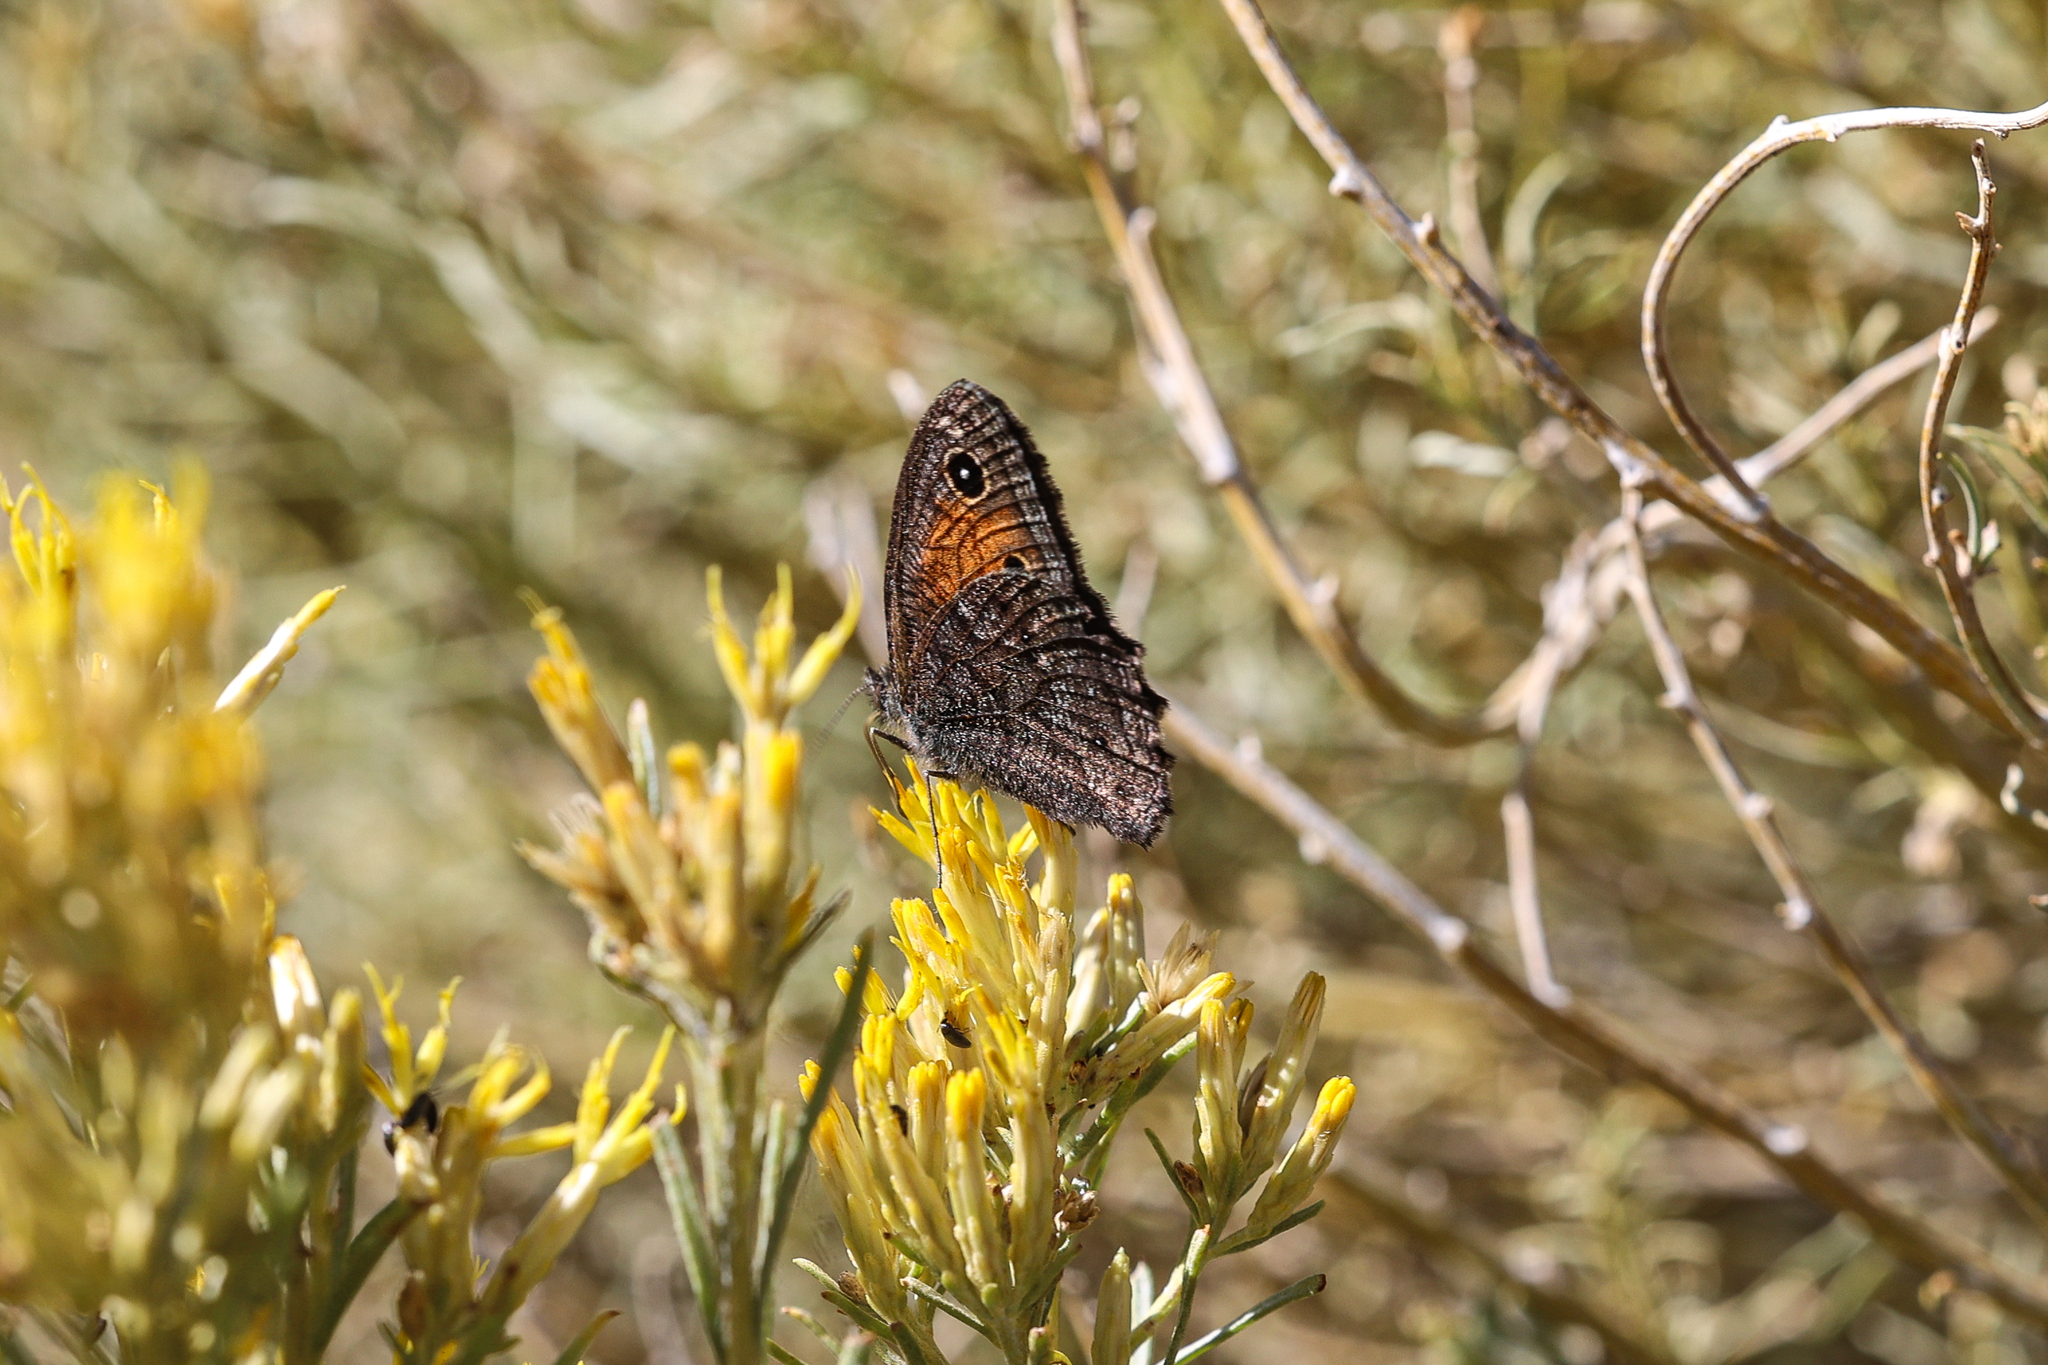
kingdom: Animalia
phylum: Arthropoda
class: Insecta
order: Lepidoptera
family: Nymphalidae
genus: Cercyonis
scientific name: Cercyonis meadi
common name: Mead's wood-nymph
